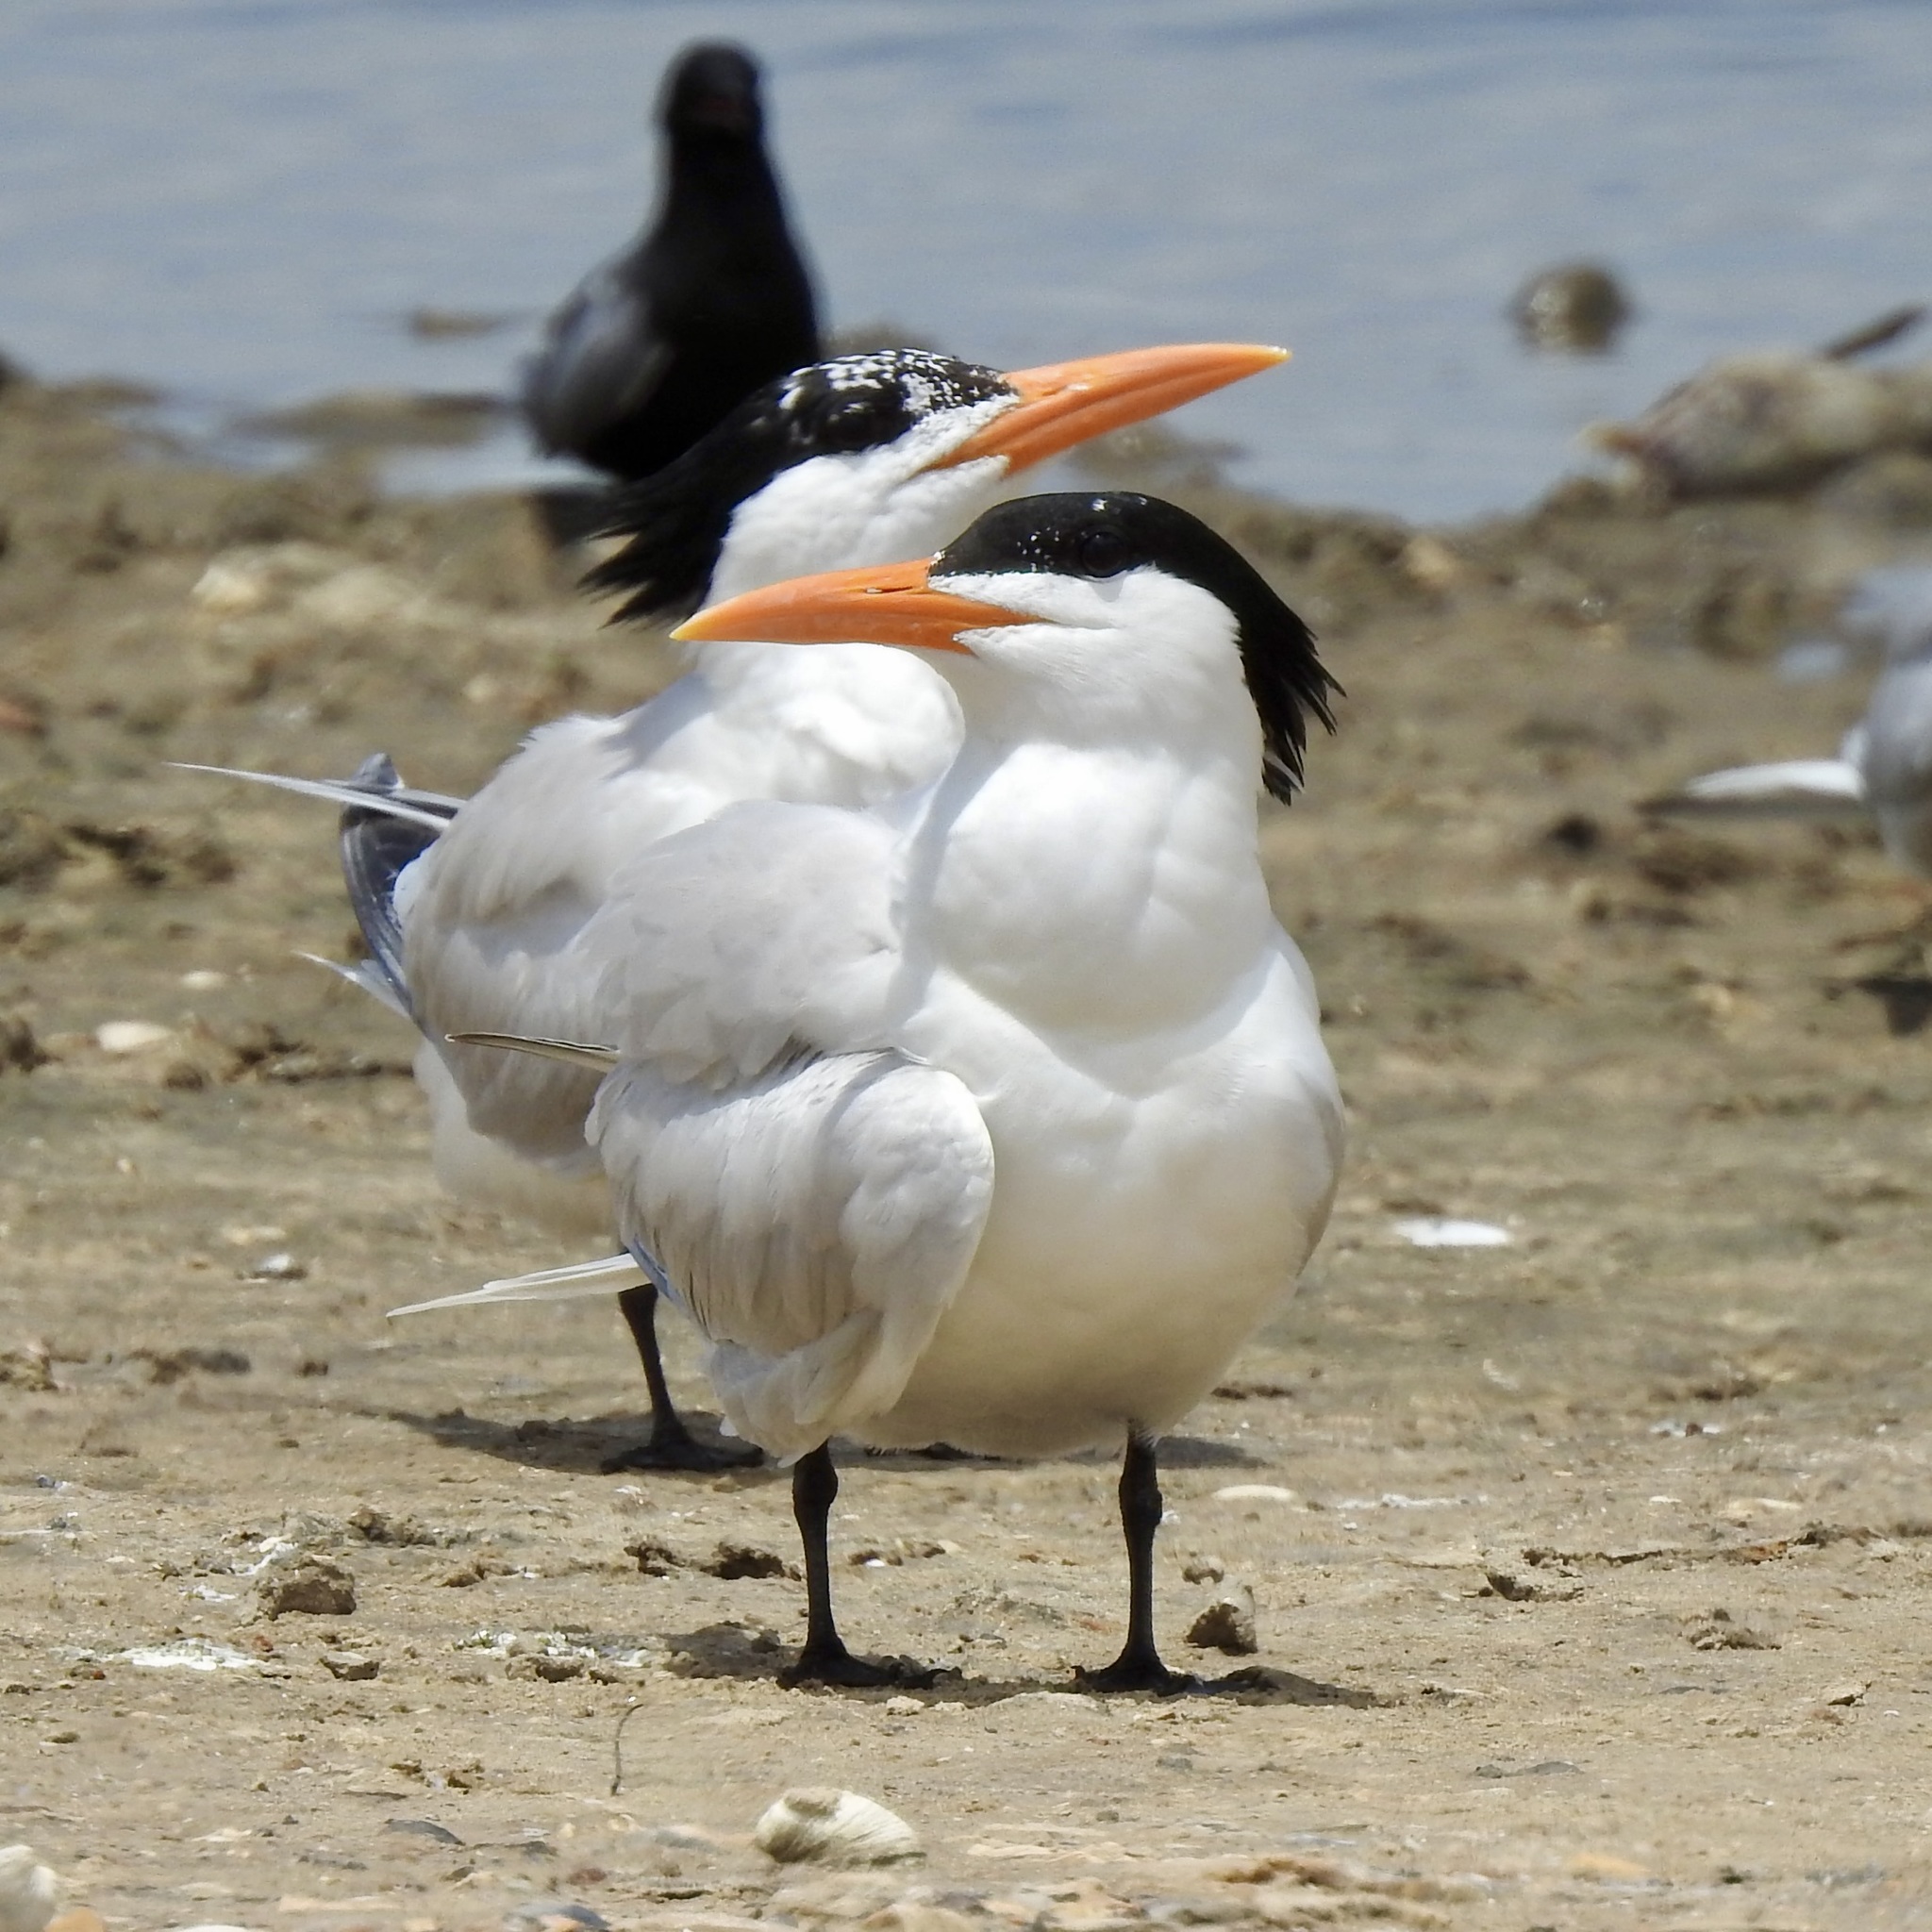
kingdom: Animalia
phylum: Chordata
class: Aves
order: Charadriiformes
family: Laridae
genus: Thalasseus
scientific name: Thalasseus maximus
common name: Royal tern
